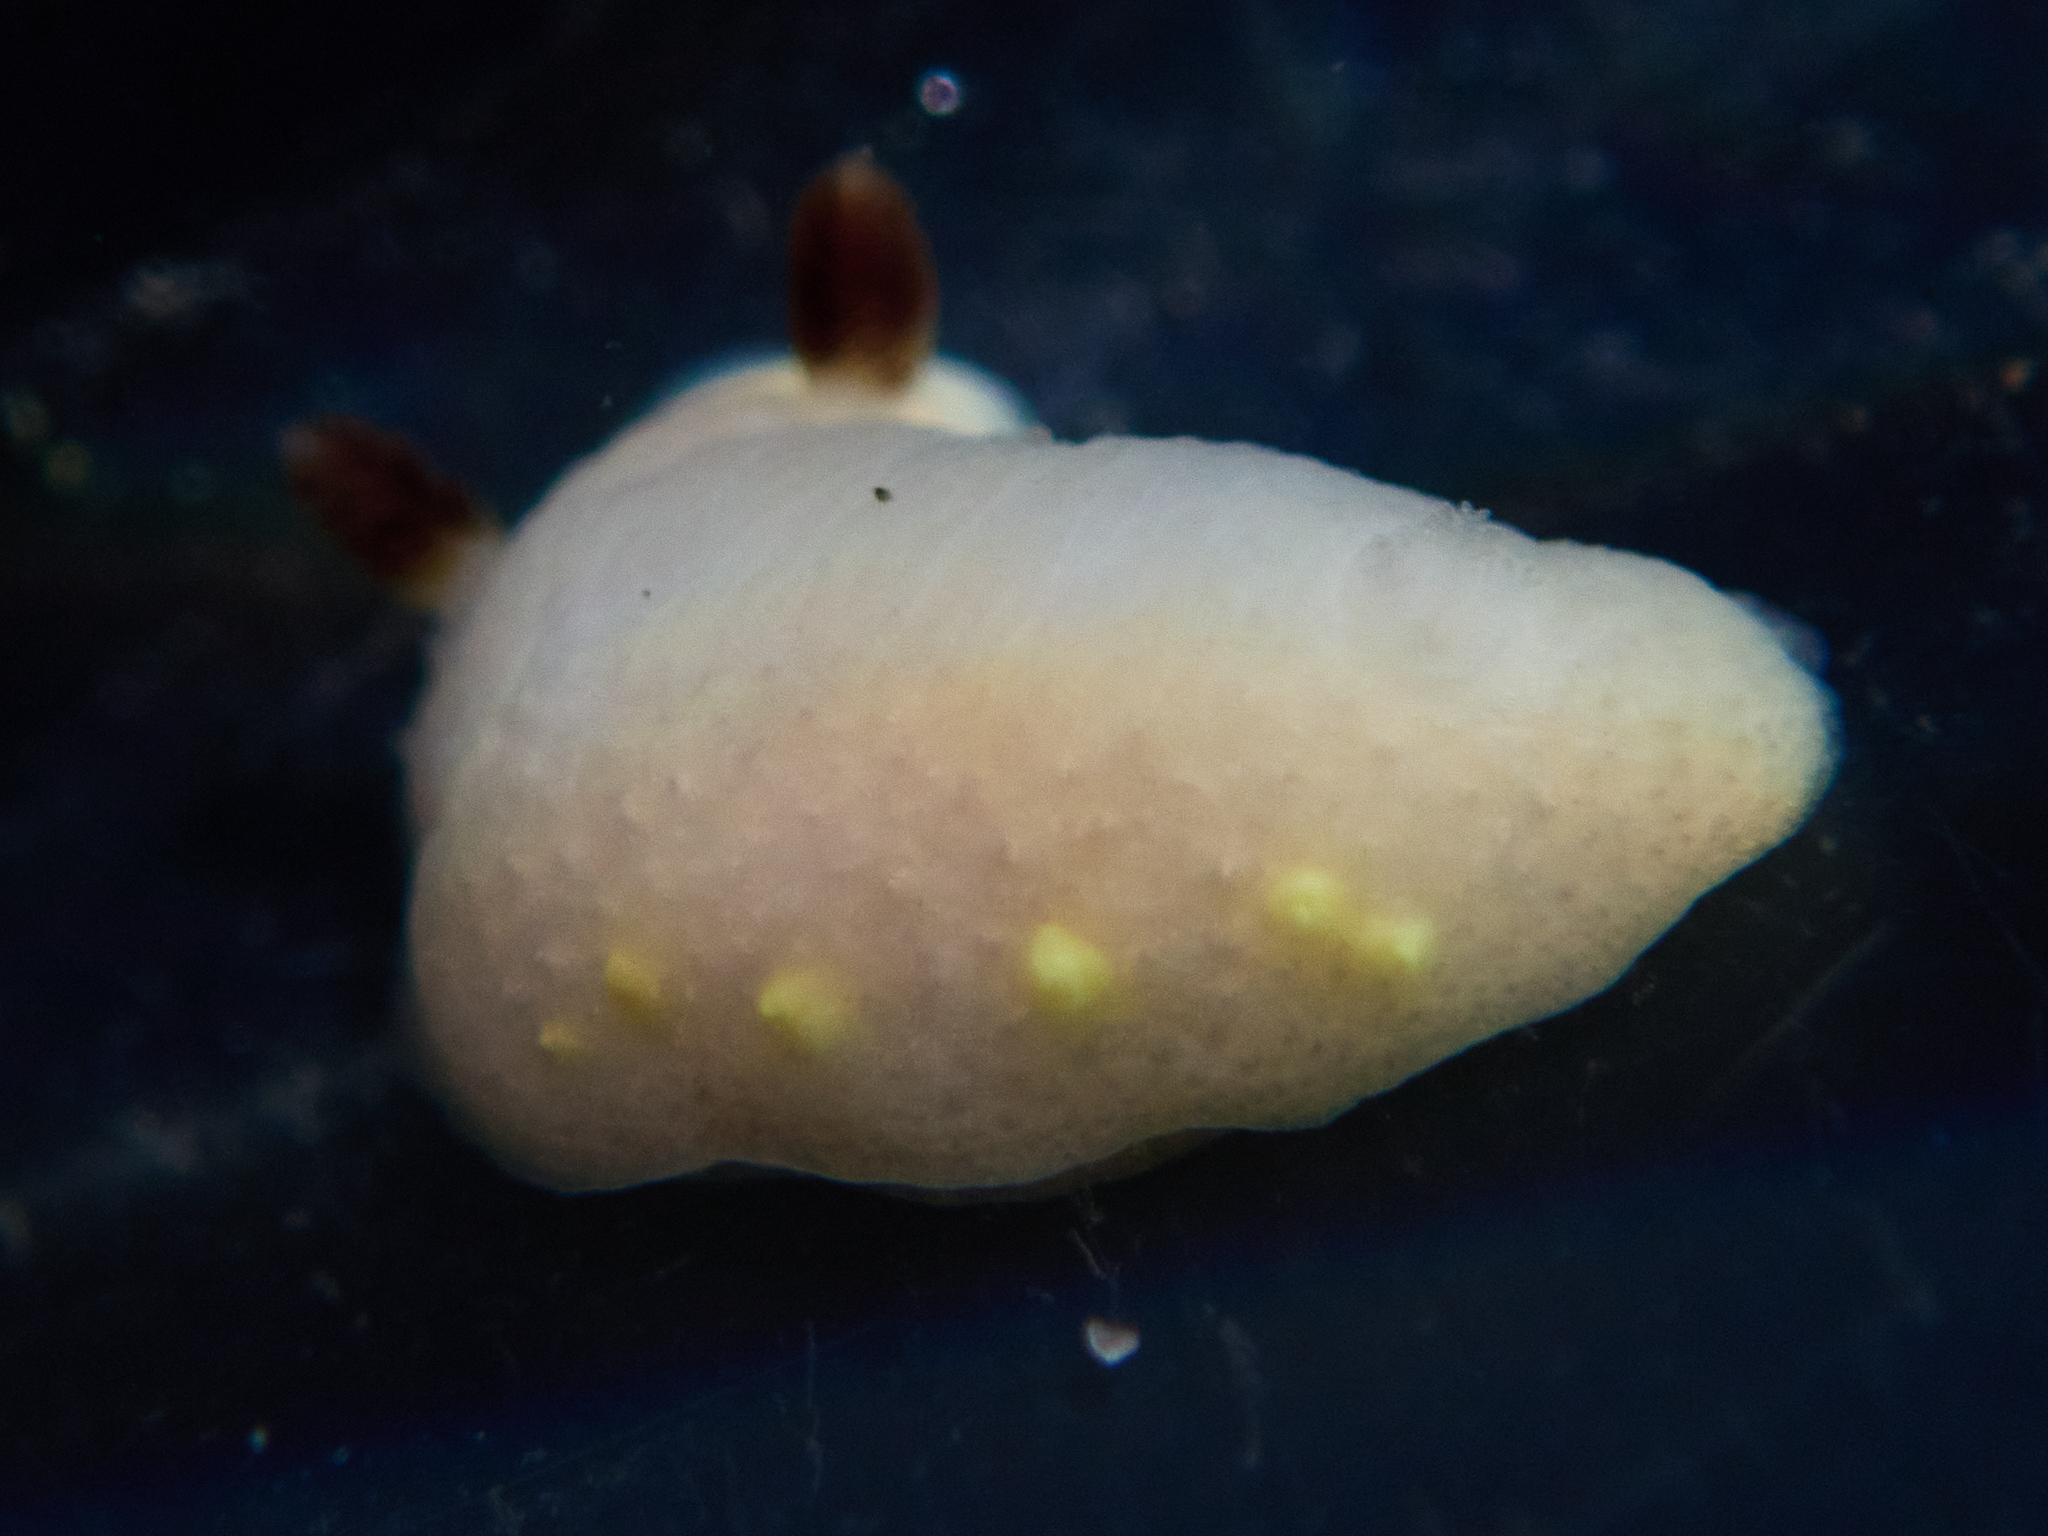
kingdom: Animalia
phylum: Mollusca
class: Gastropoda
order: Nudibranchia
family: Cadlinidae
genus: Cadlina
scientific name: Cadlina flavomaculata
